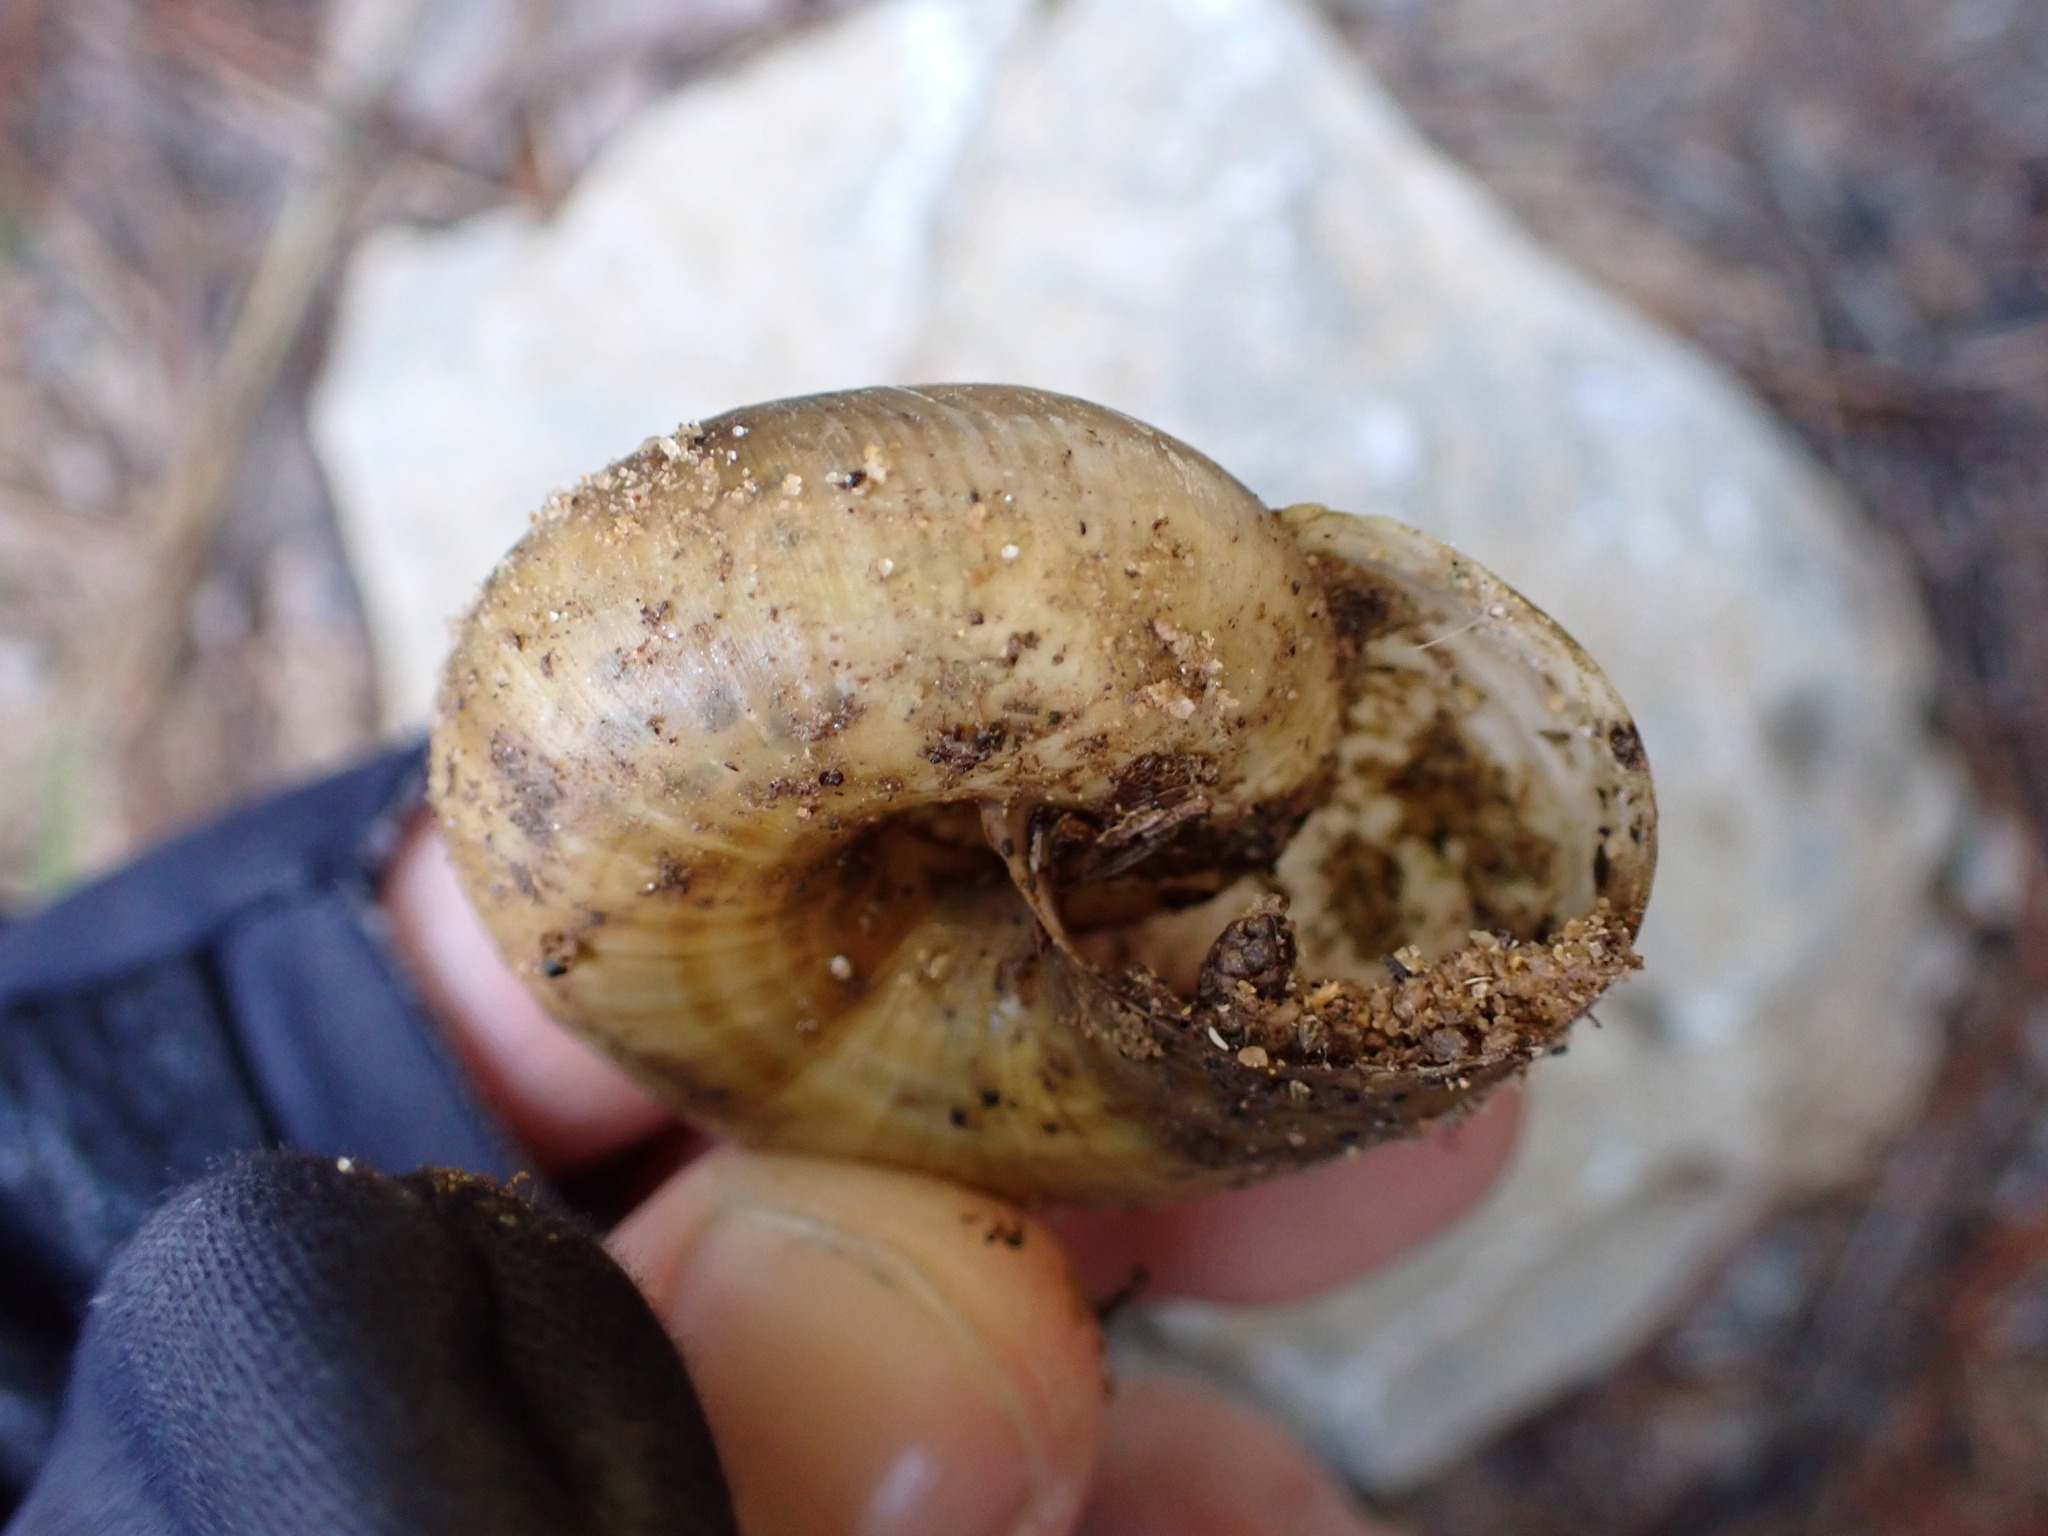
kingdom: Animalia
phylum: Mollusca
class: Gastropoda
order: Stylommatophora
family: Zonitidae
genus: Zonites
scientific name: Zonites algirus
